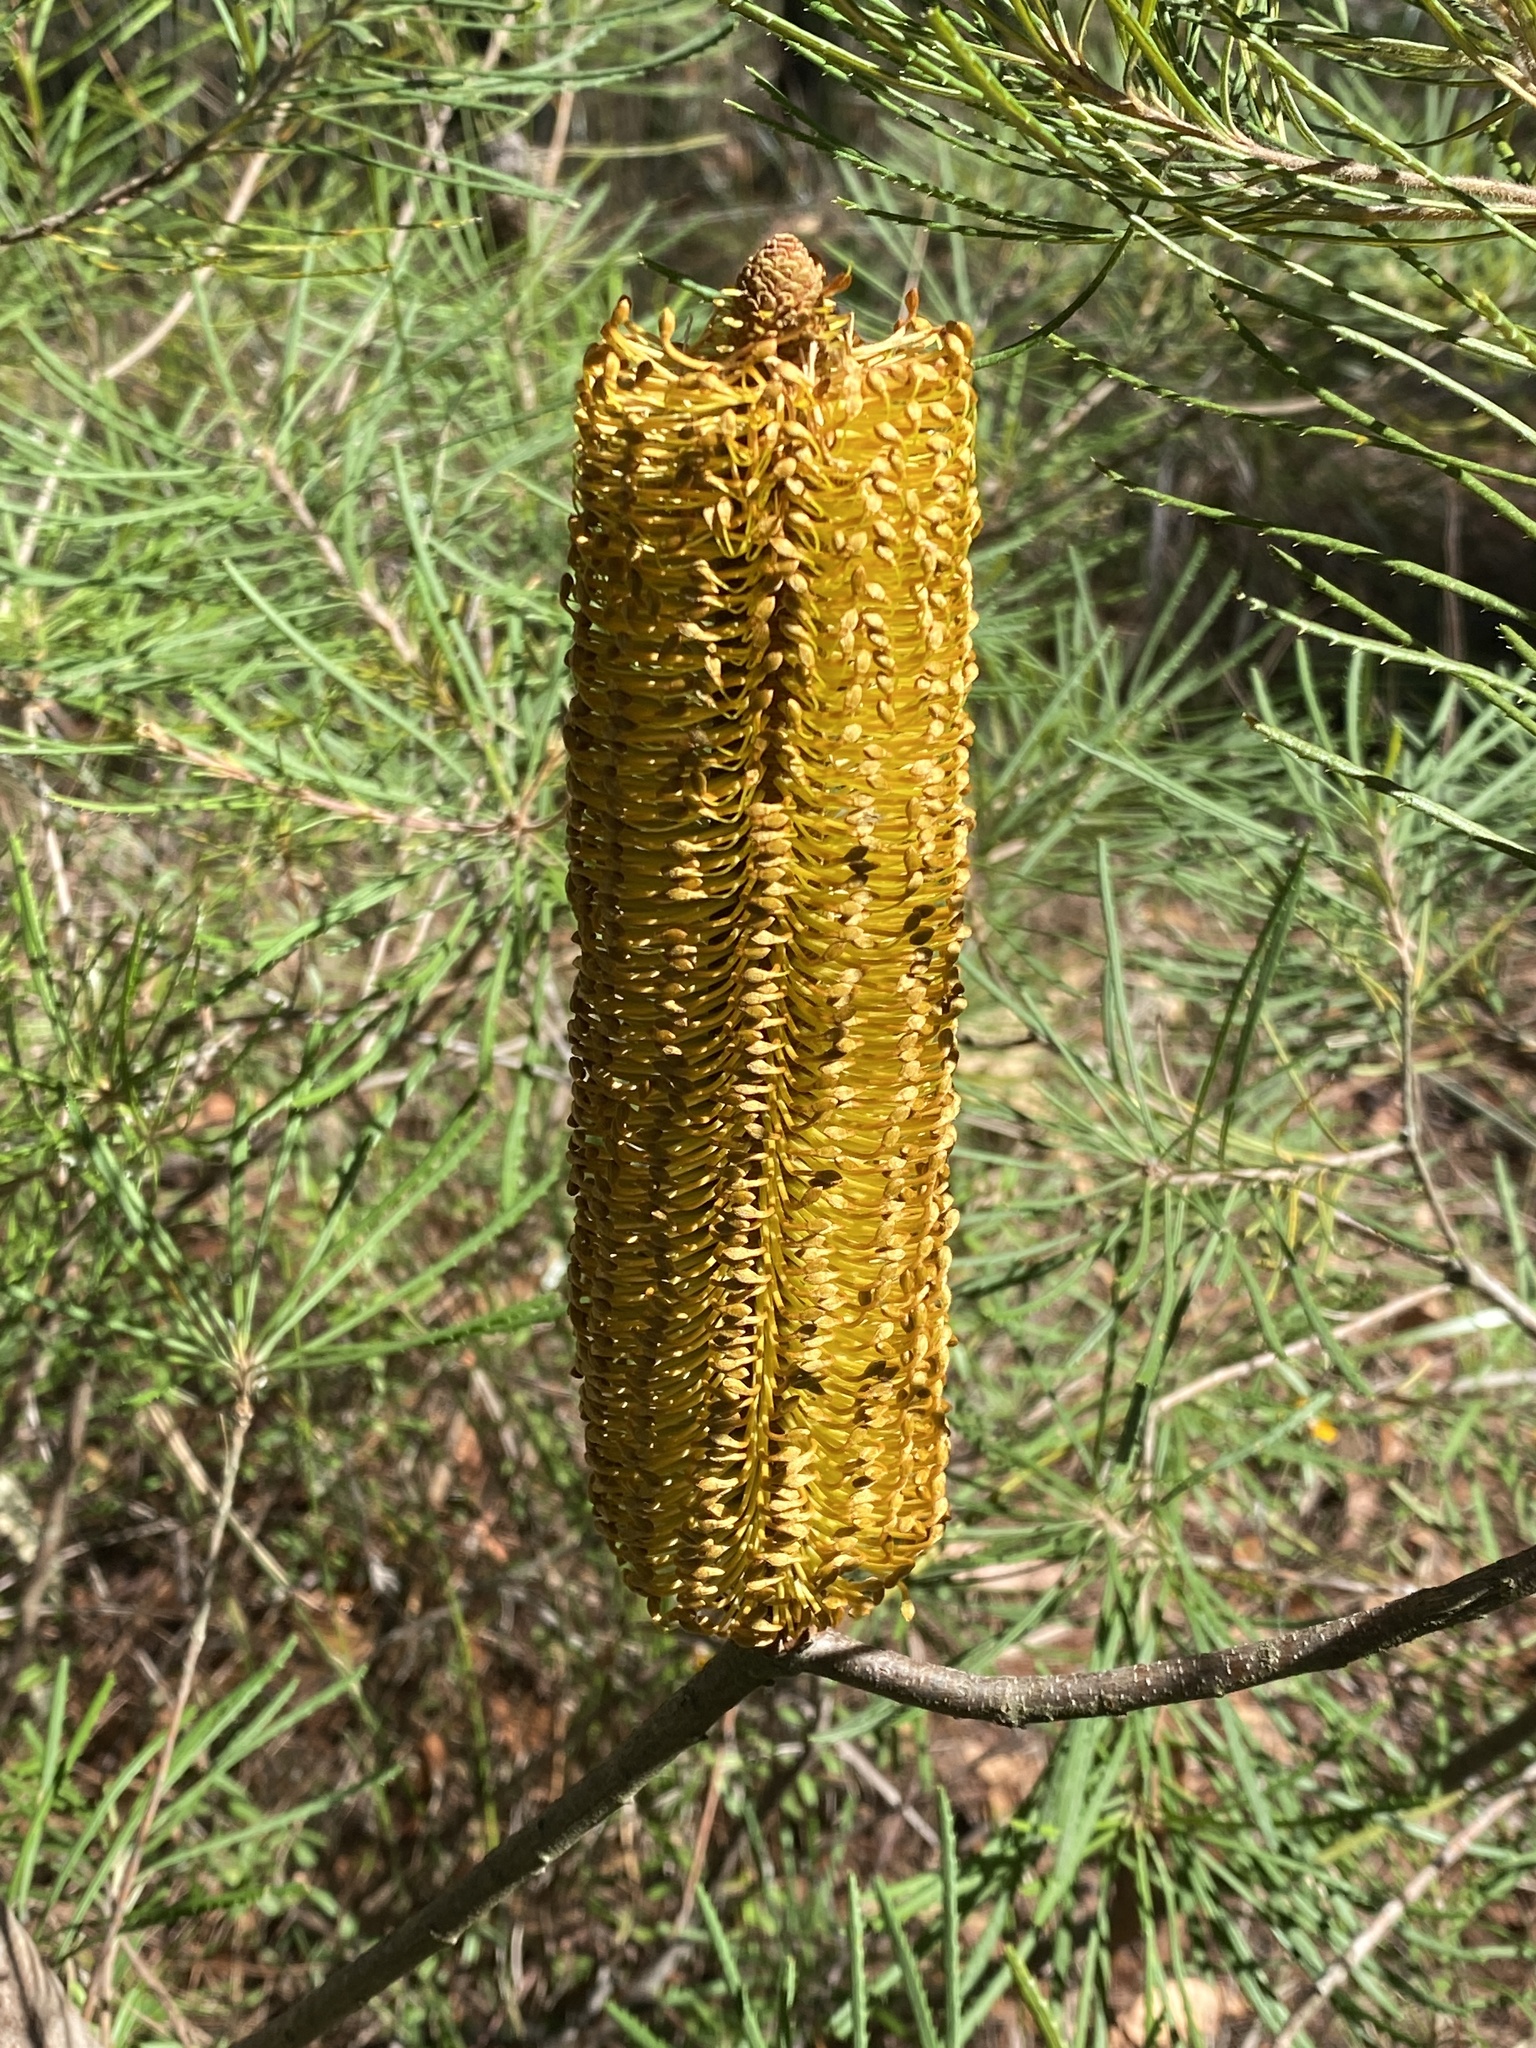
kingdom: Plantae
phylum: Tracheophyta
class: Magnoliopsida
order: Proteales
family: Proteaceae
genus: Banksia
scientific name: Banksia spinulosa
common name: Hairpin banksia
